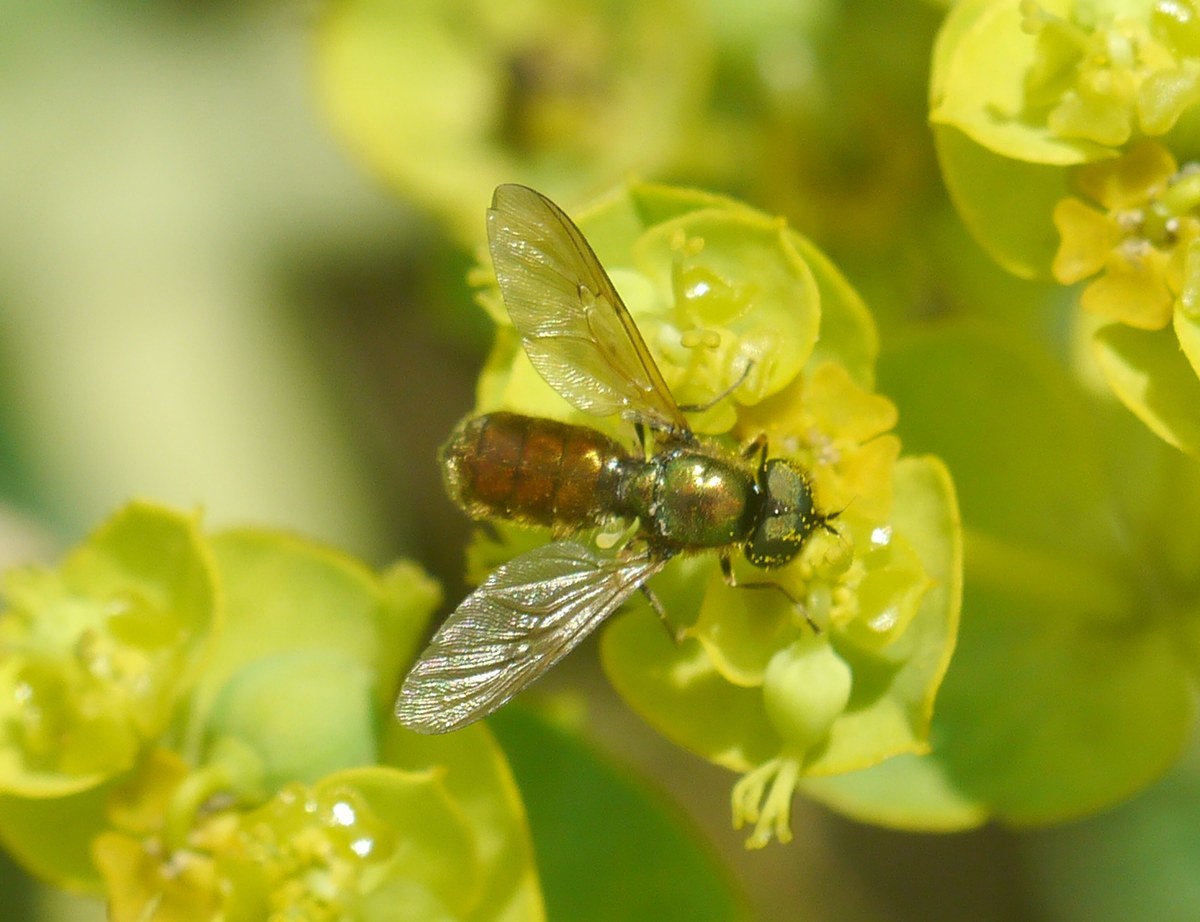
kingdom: Animalia
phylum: Arthropoda
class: Insecta
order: Diptera
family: Stratiomyidae
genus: Chloromyia
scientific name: Chloromyia formosa
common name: Soldier fly
